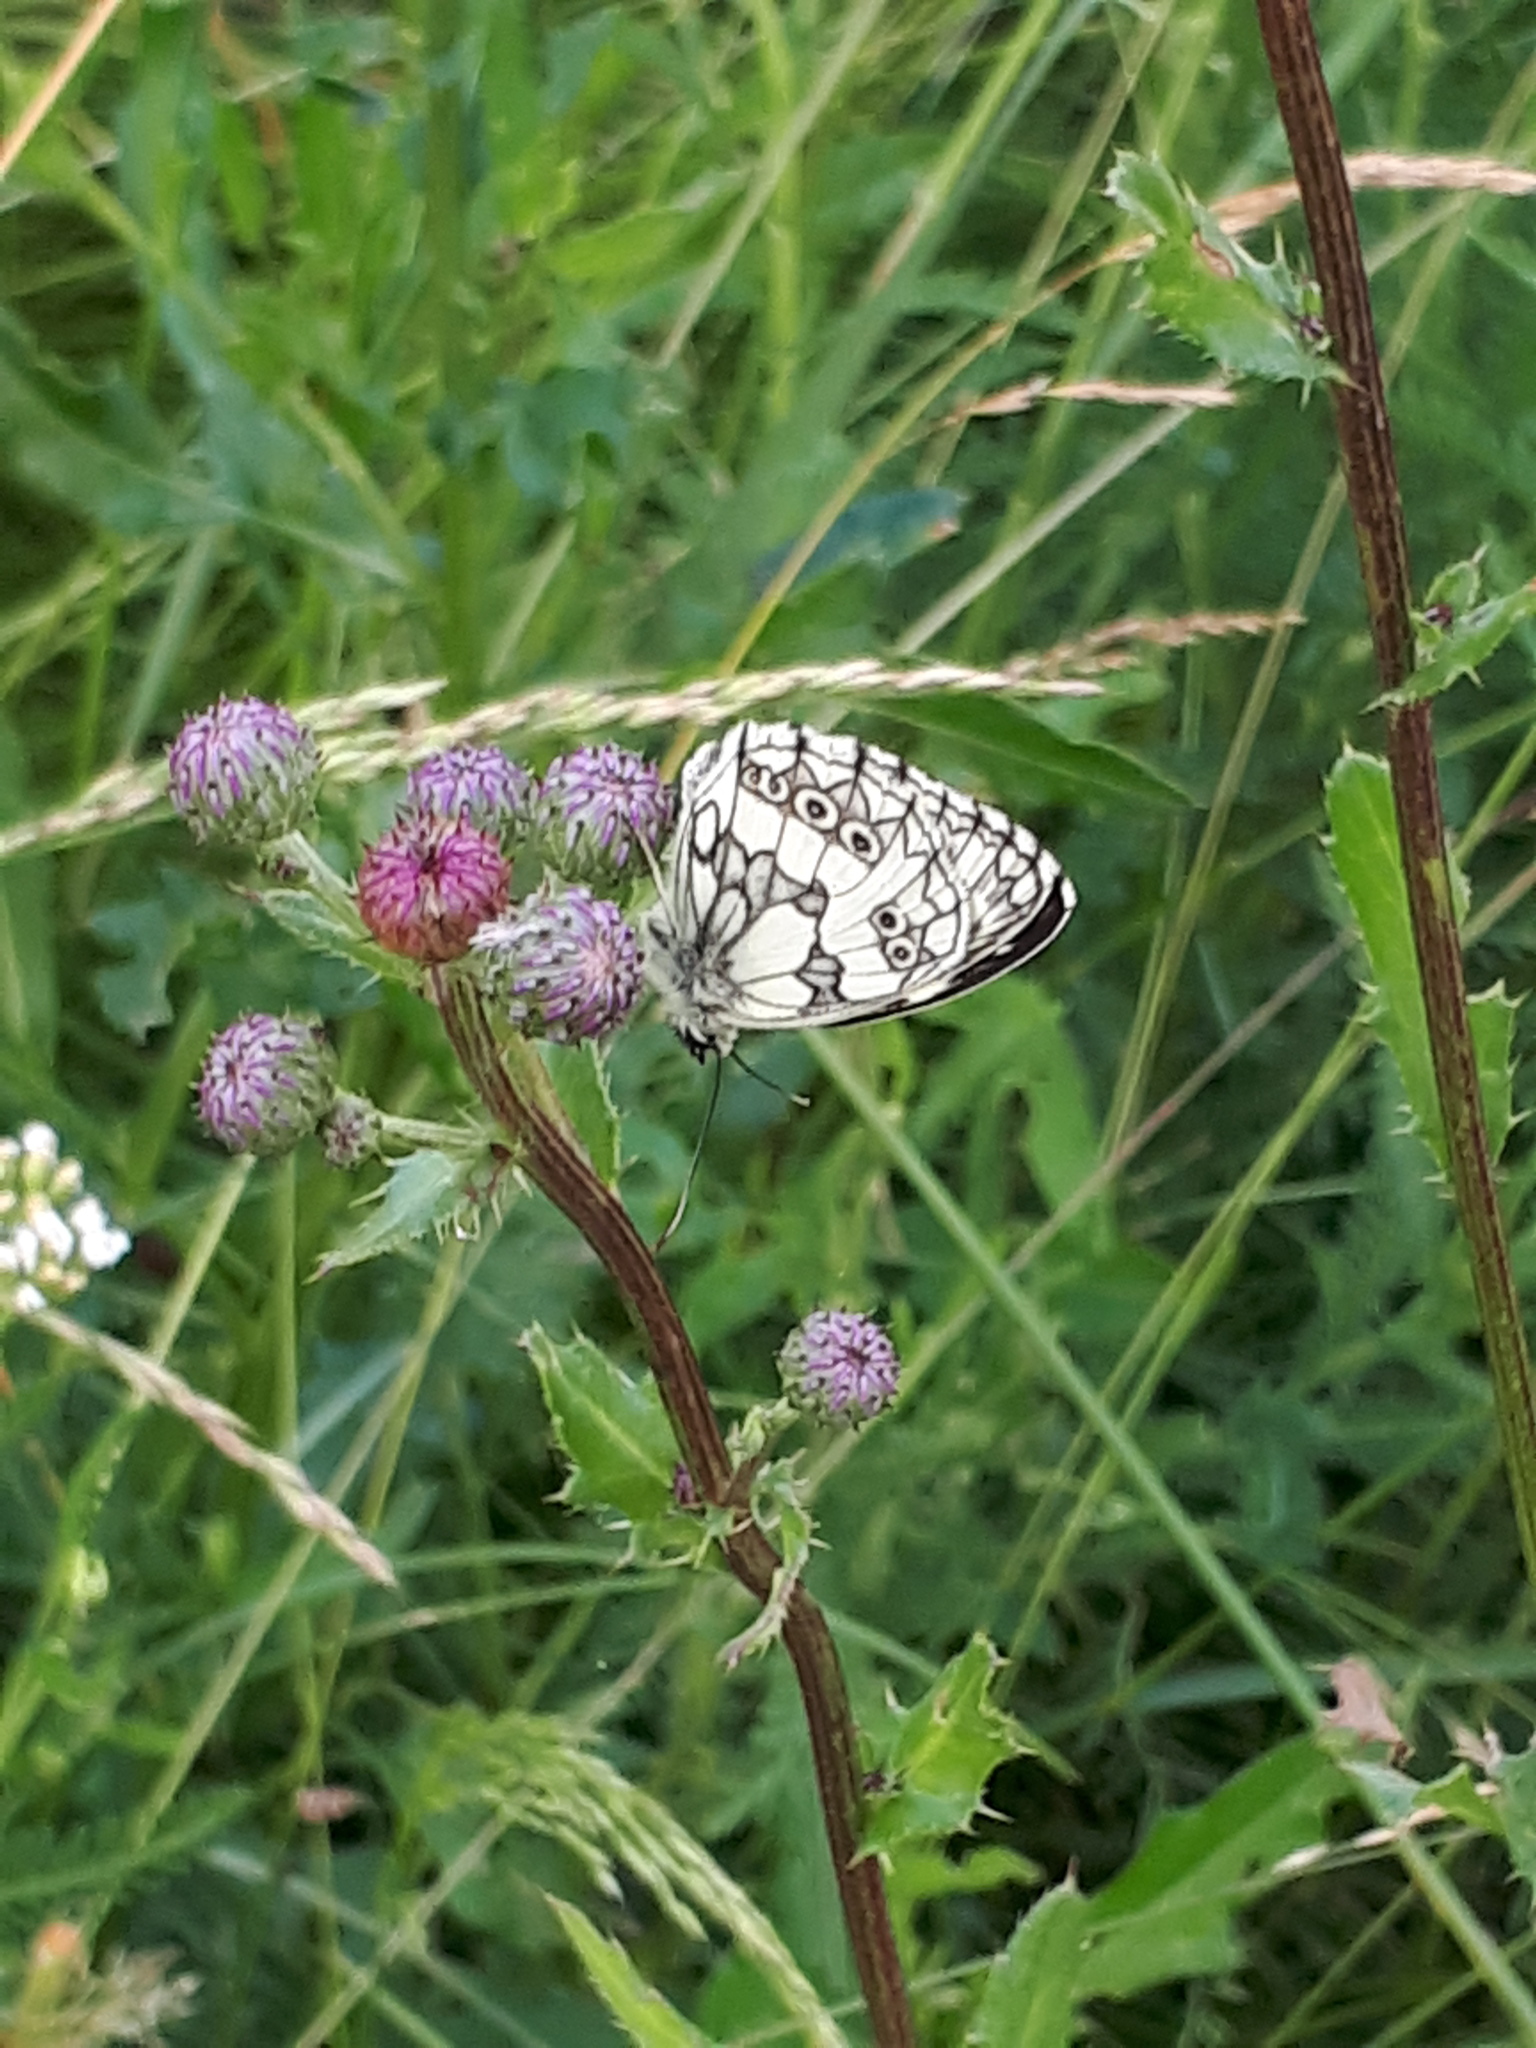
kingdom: Animalia
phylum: Arthropoda
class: Insecta
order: Lepidoptera
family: Nymphalidae
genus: Melanargia
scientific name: Melanargia galathea
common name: Marbled white
